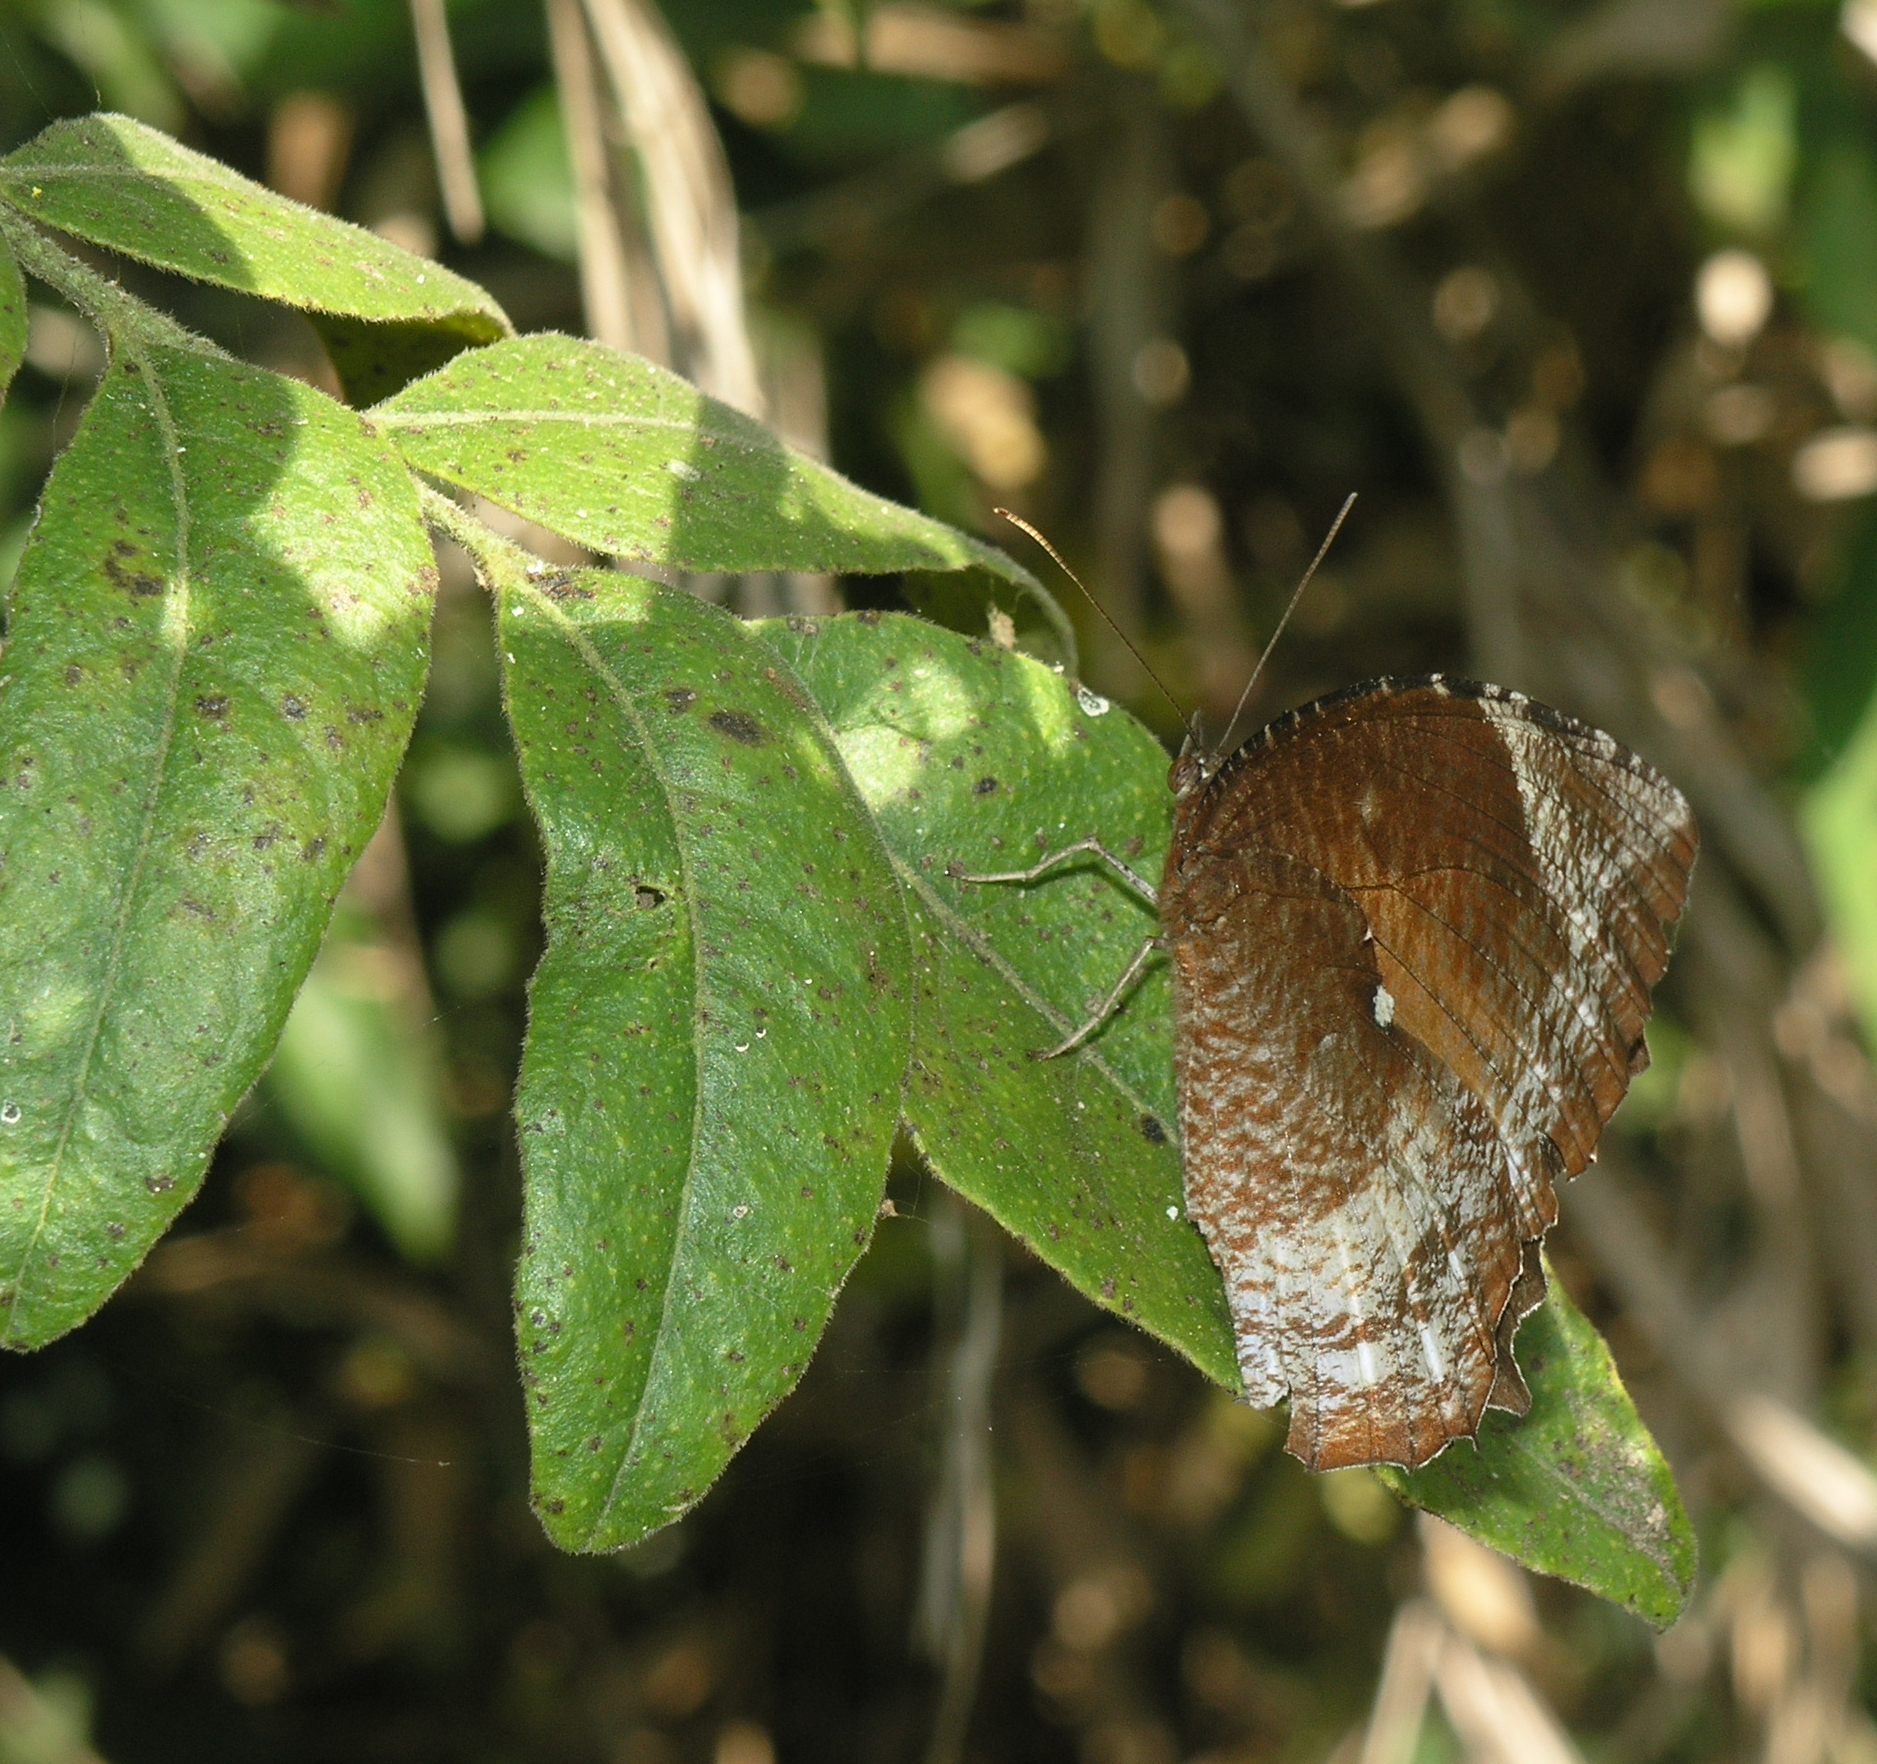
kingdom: Animalia
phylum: Arthropoda
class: Insecta
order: Lepidoptera
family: Nymphalidae
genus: Elymnias
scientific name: Elymnias hypermnestra
